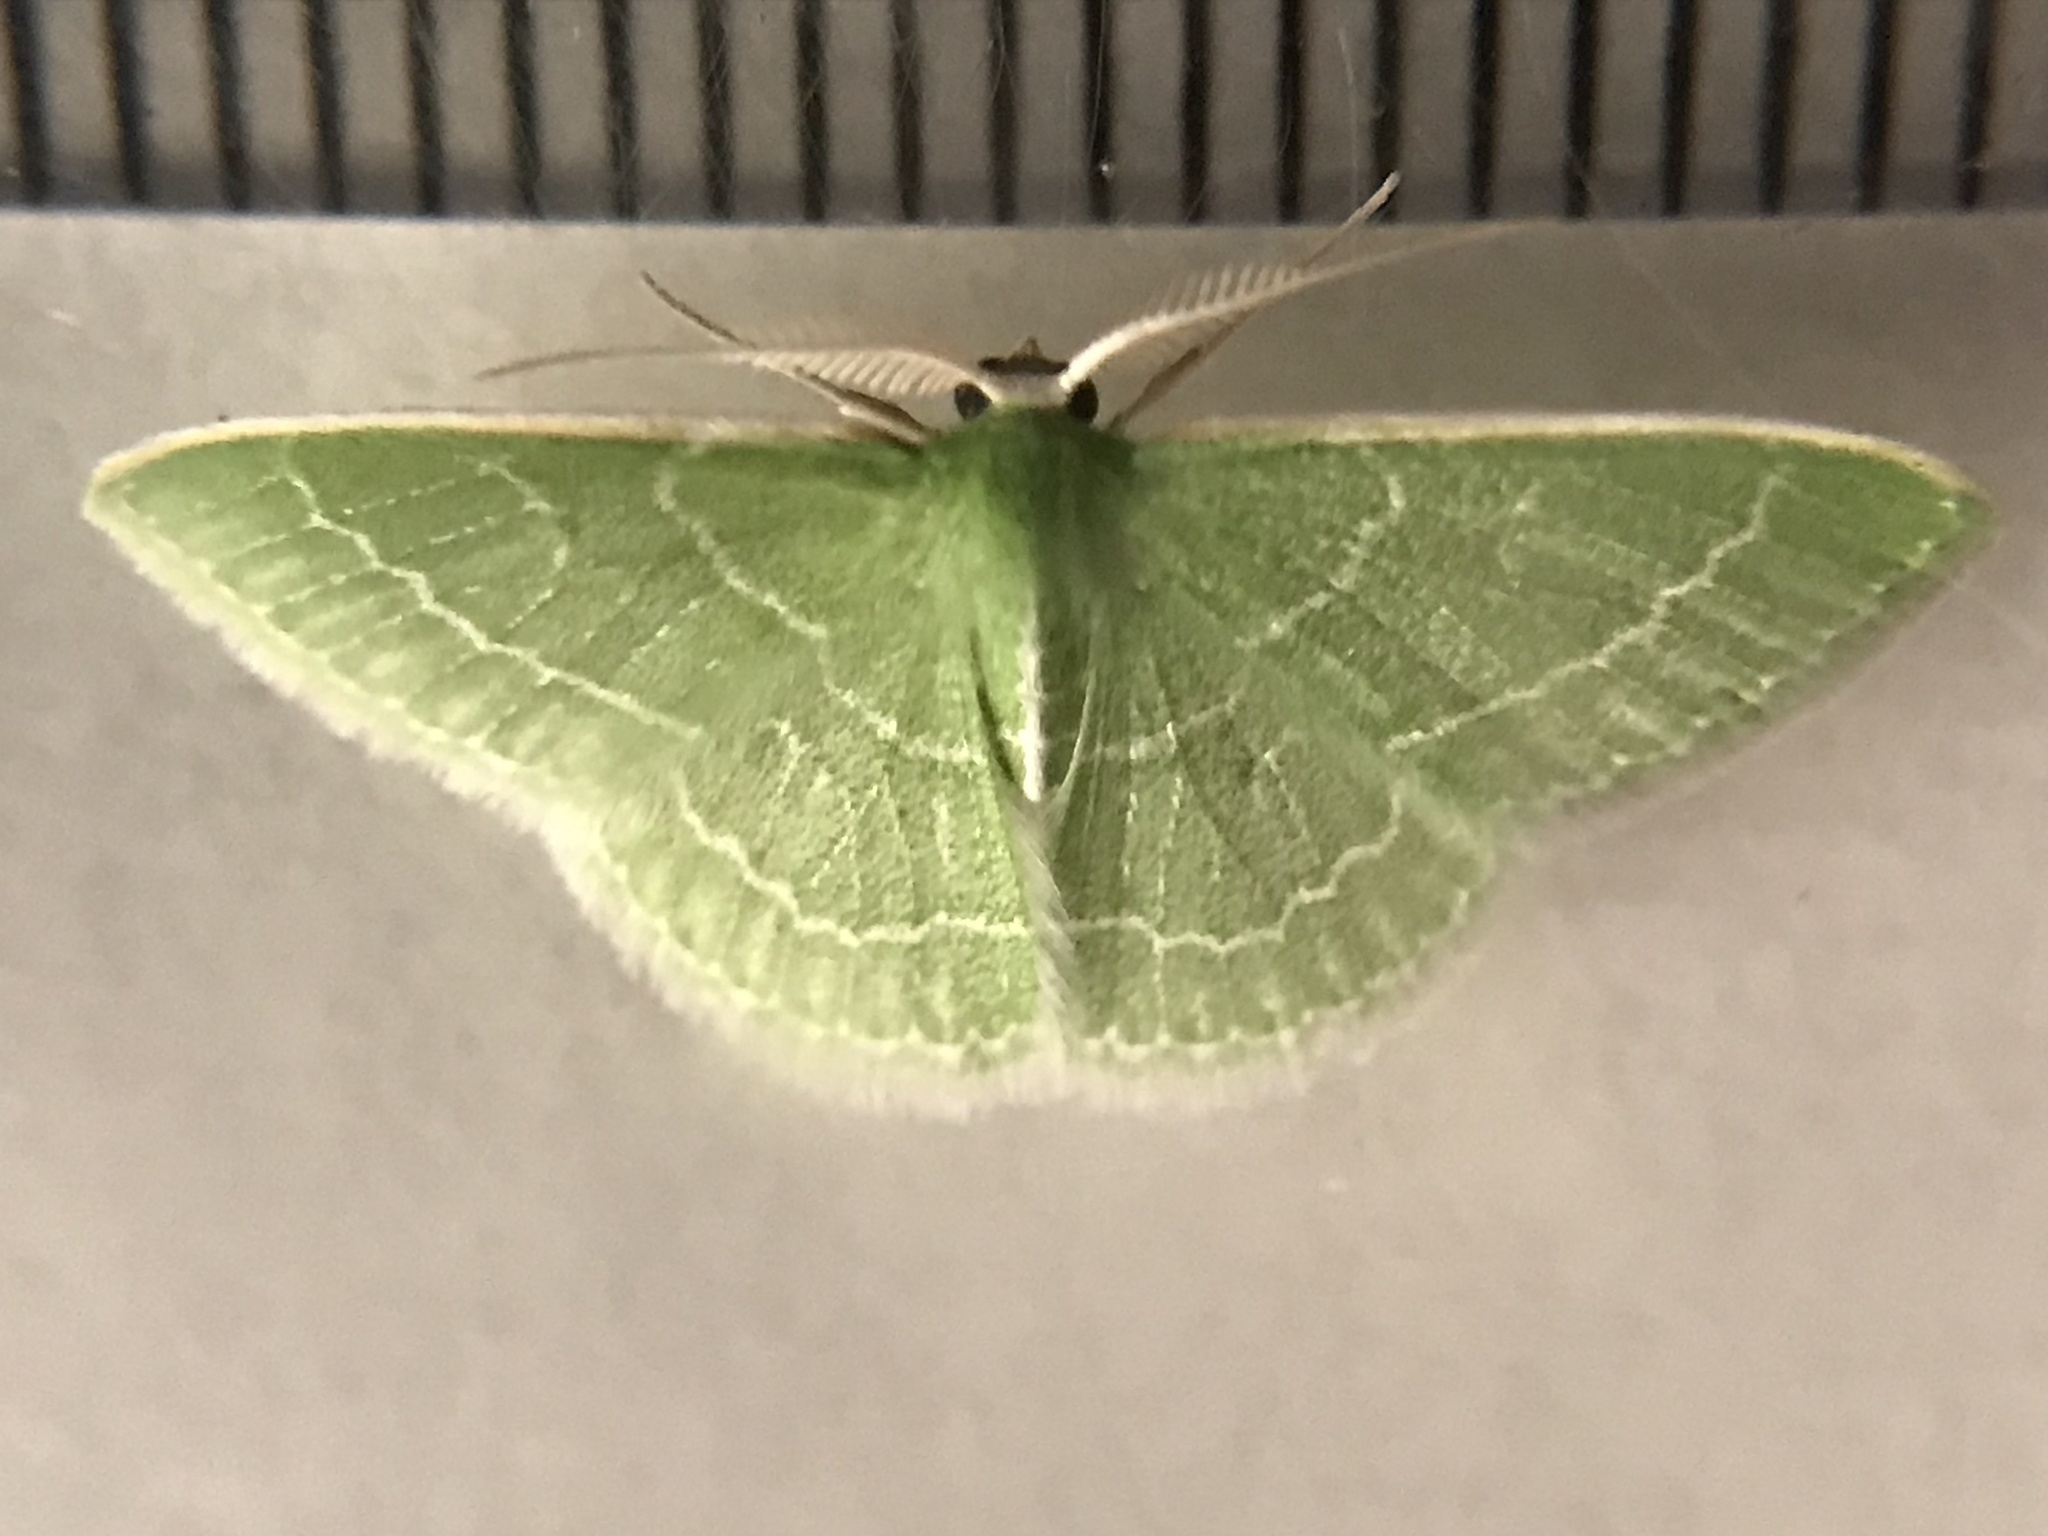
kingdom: Animalia
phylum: Arthropoda
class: Insecta
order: Lepidoptera
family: Geometridae
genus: Synchlora
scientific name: Synchlora aerata
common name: Wavy-lined emerald
